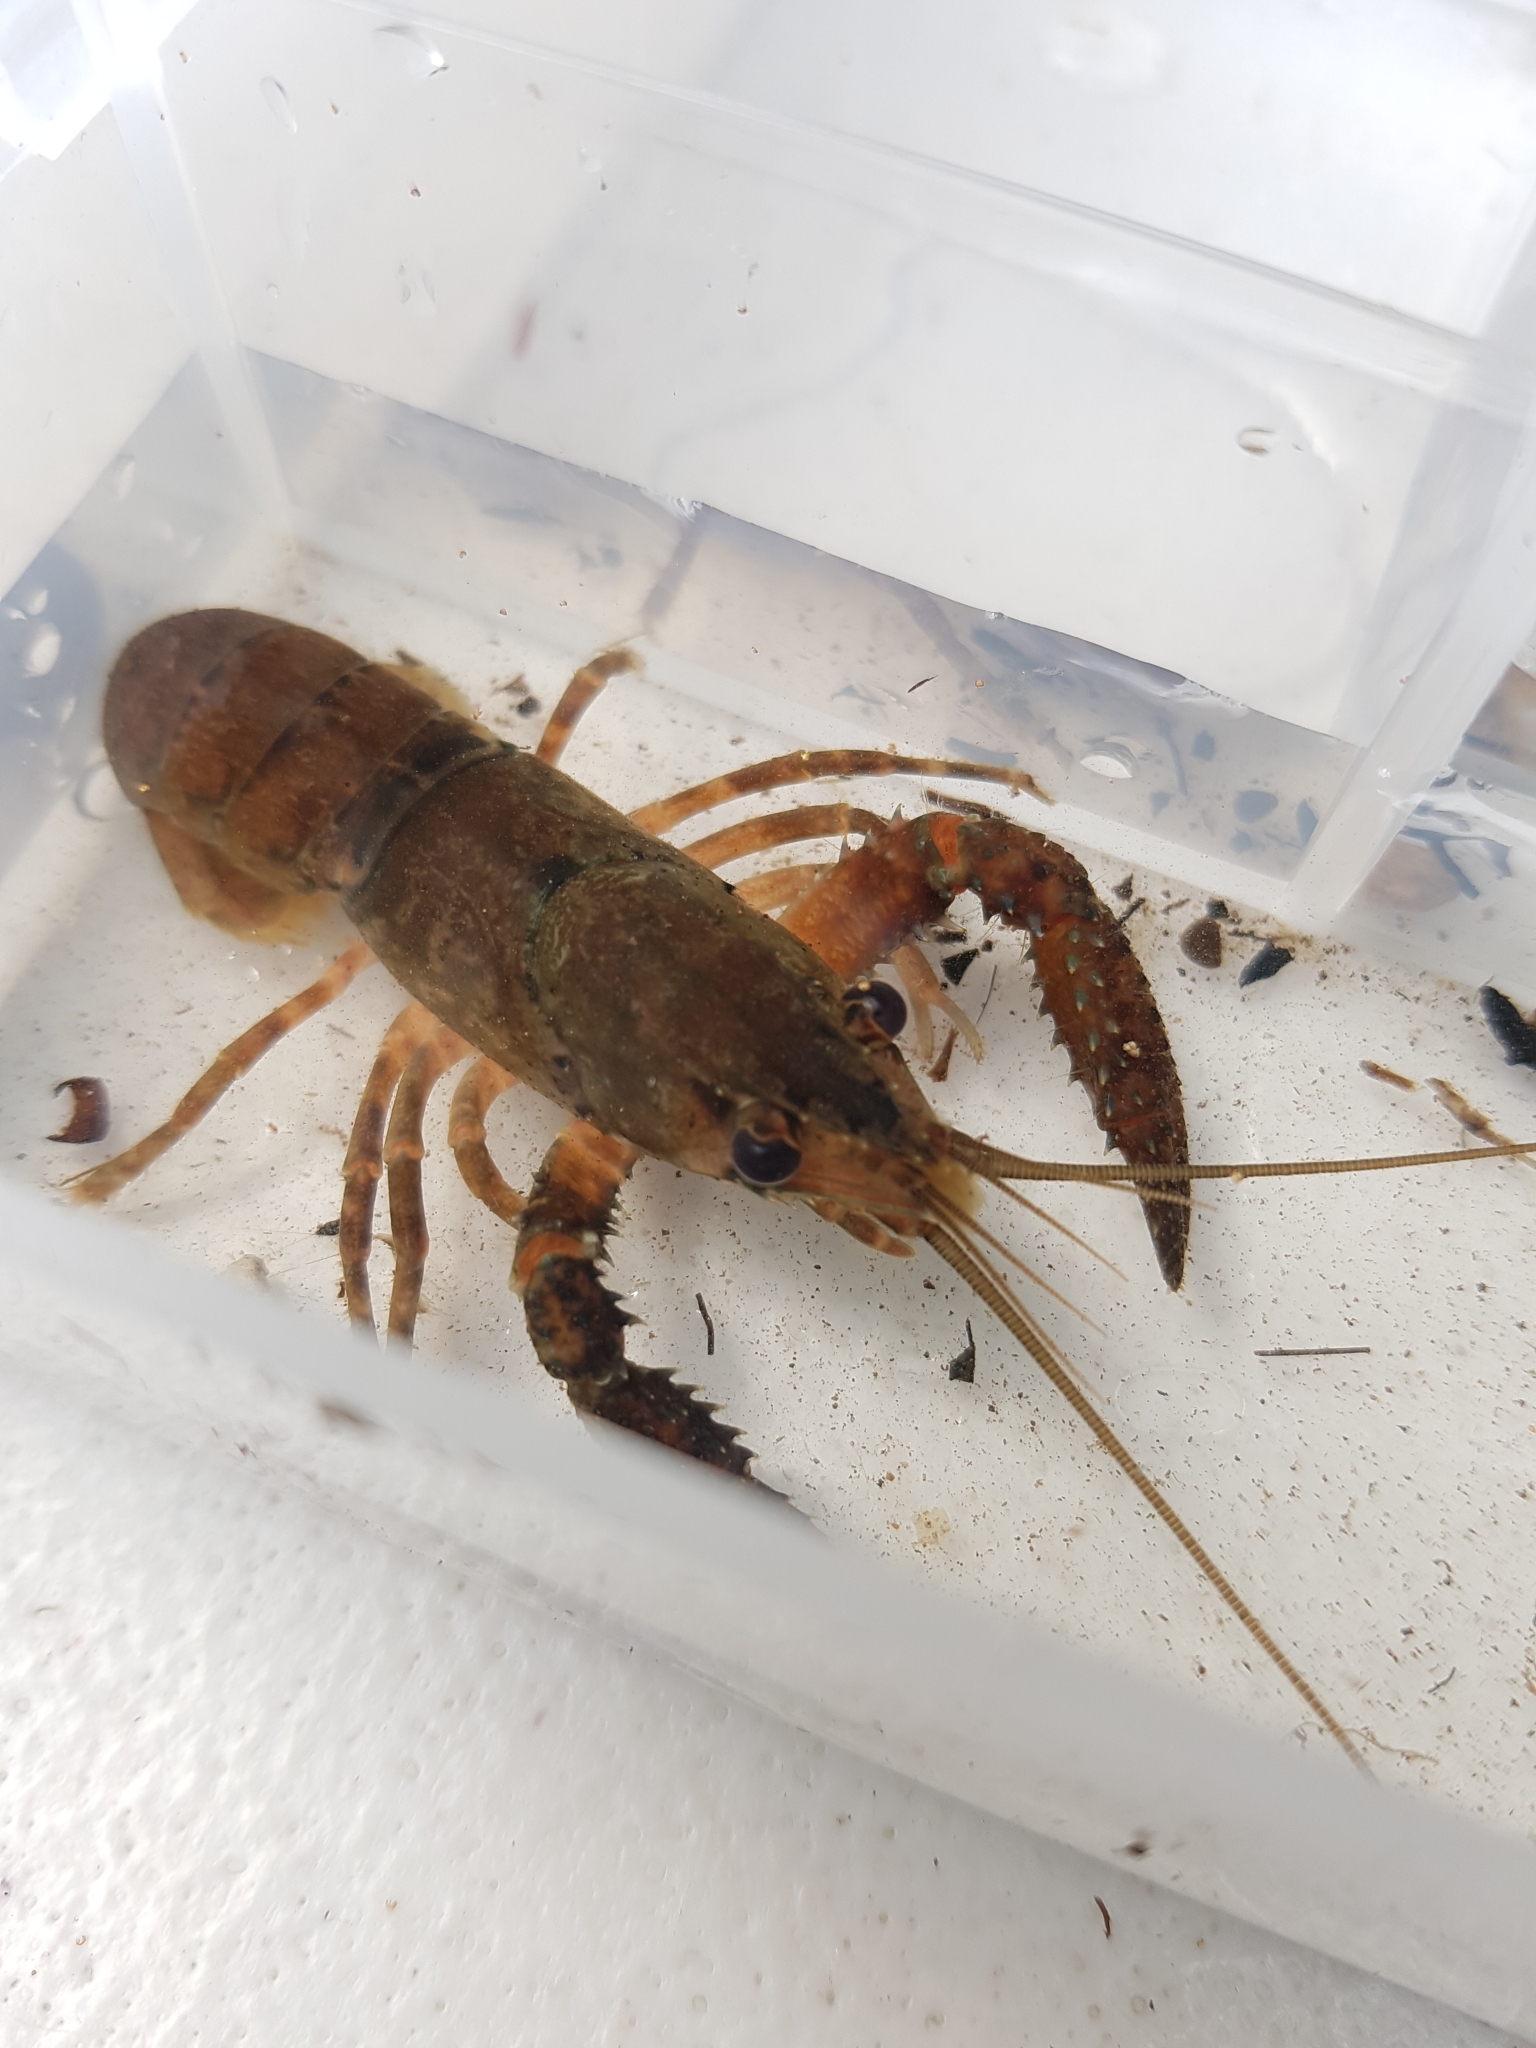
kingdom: Animalia
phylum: Arthropoda
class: Malacostraca
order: Decapoda
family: Parastacidae
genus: Paranephrops
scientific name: Paranephrops planifrons
